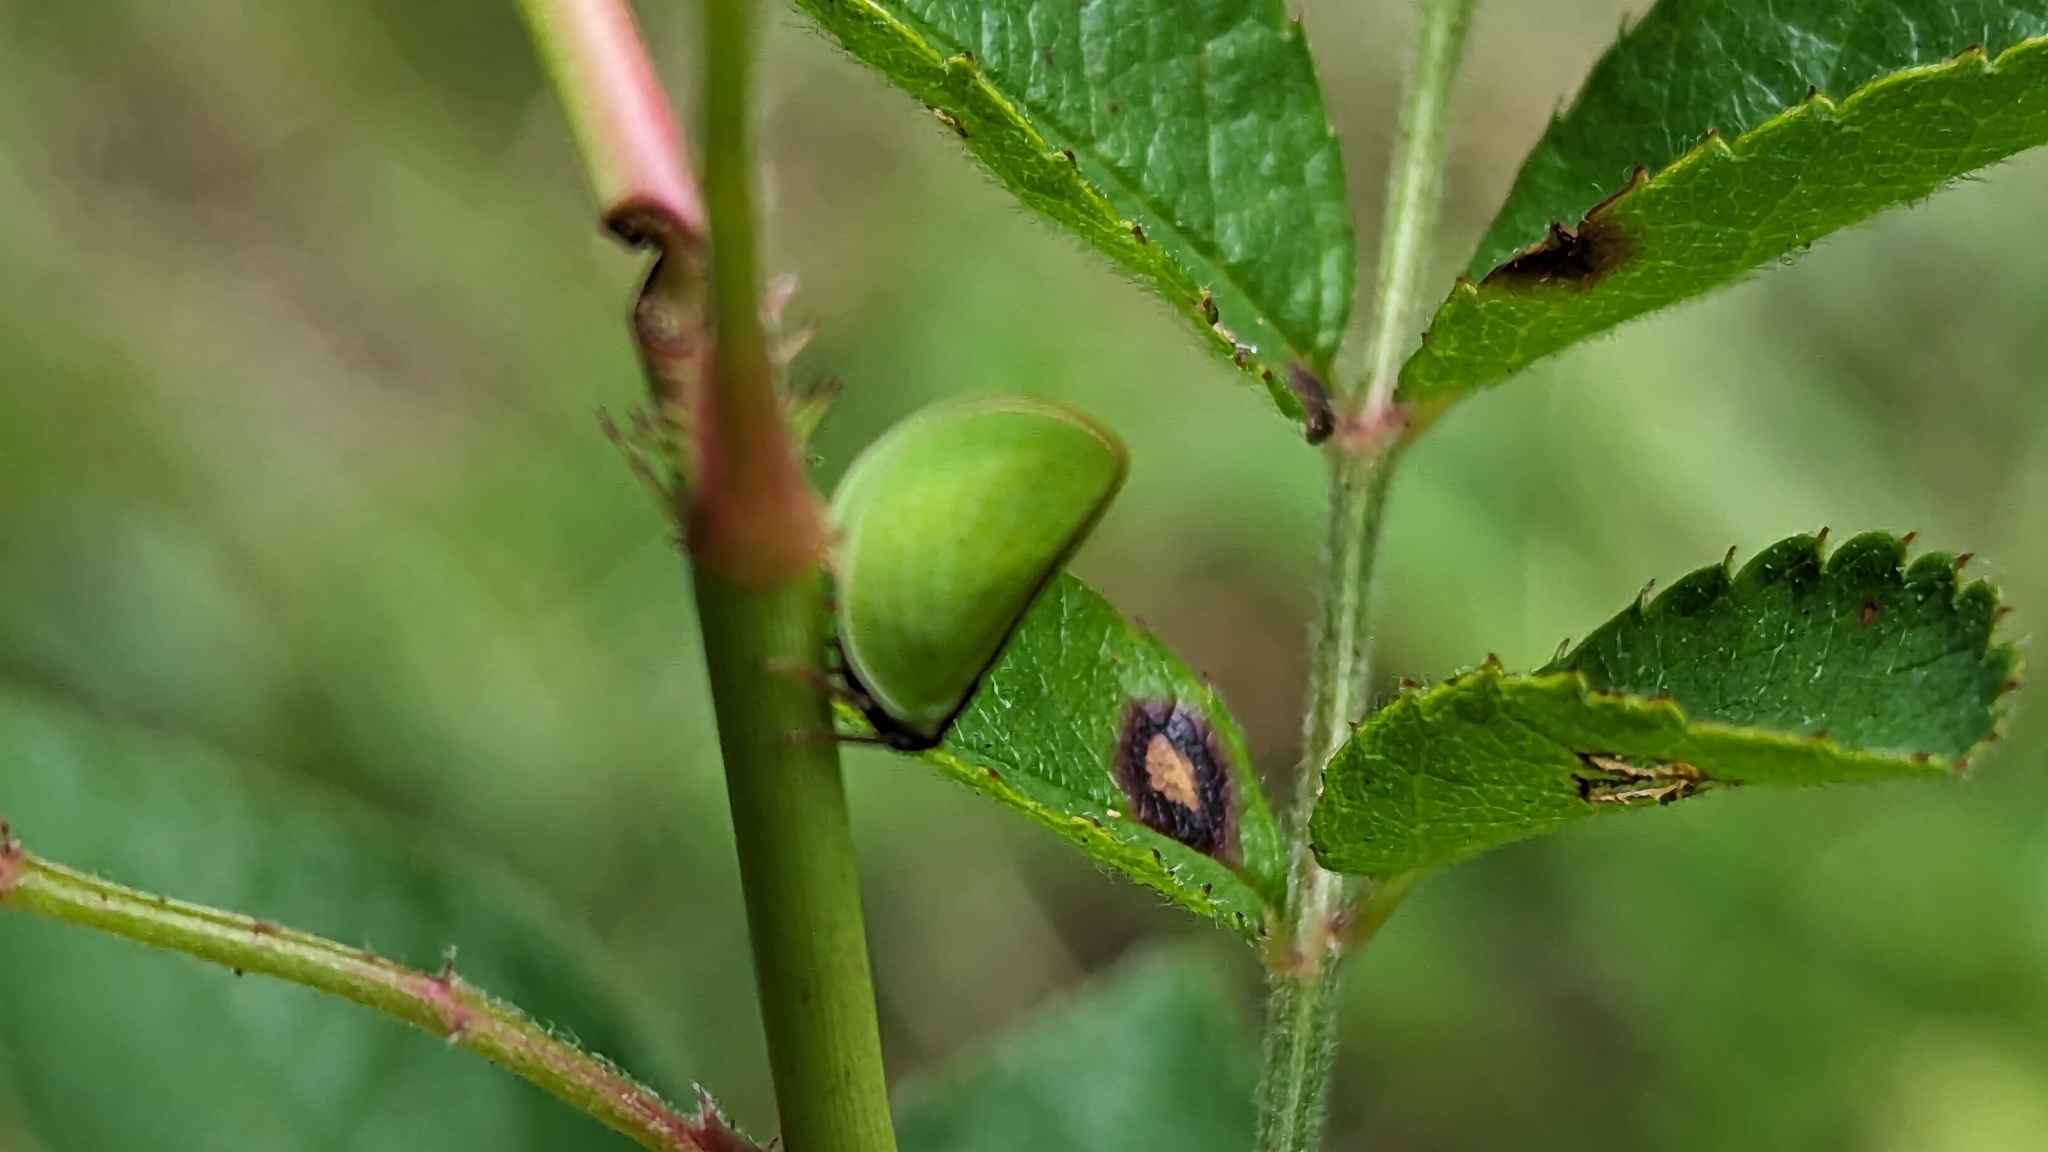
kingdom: Animalia
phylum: Arthropoda
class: Insecta
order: Hemiptera
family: Acanaloniidae
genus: Acanalonia
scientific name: Acanalonia bivittata
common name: Two-striped planthopper
